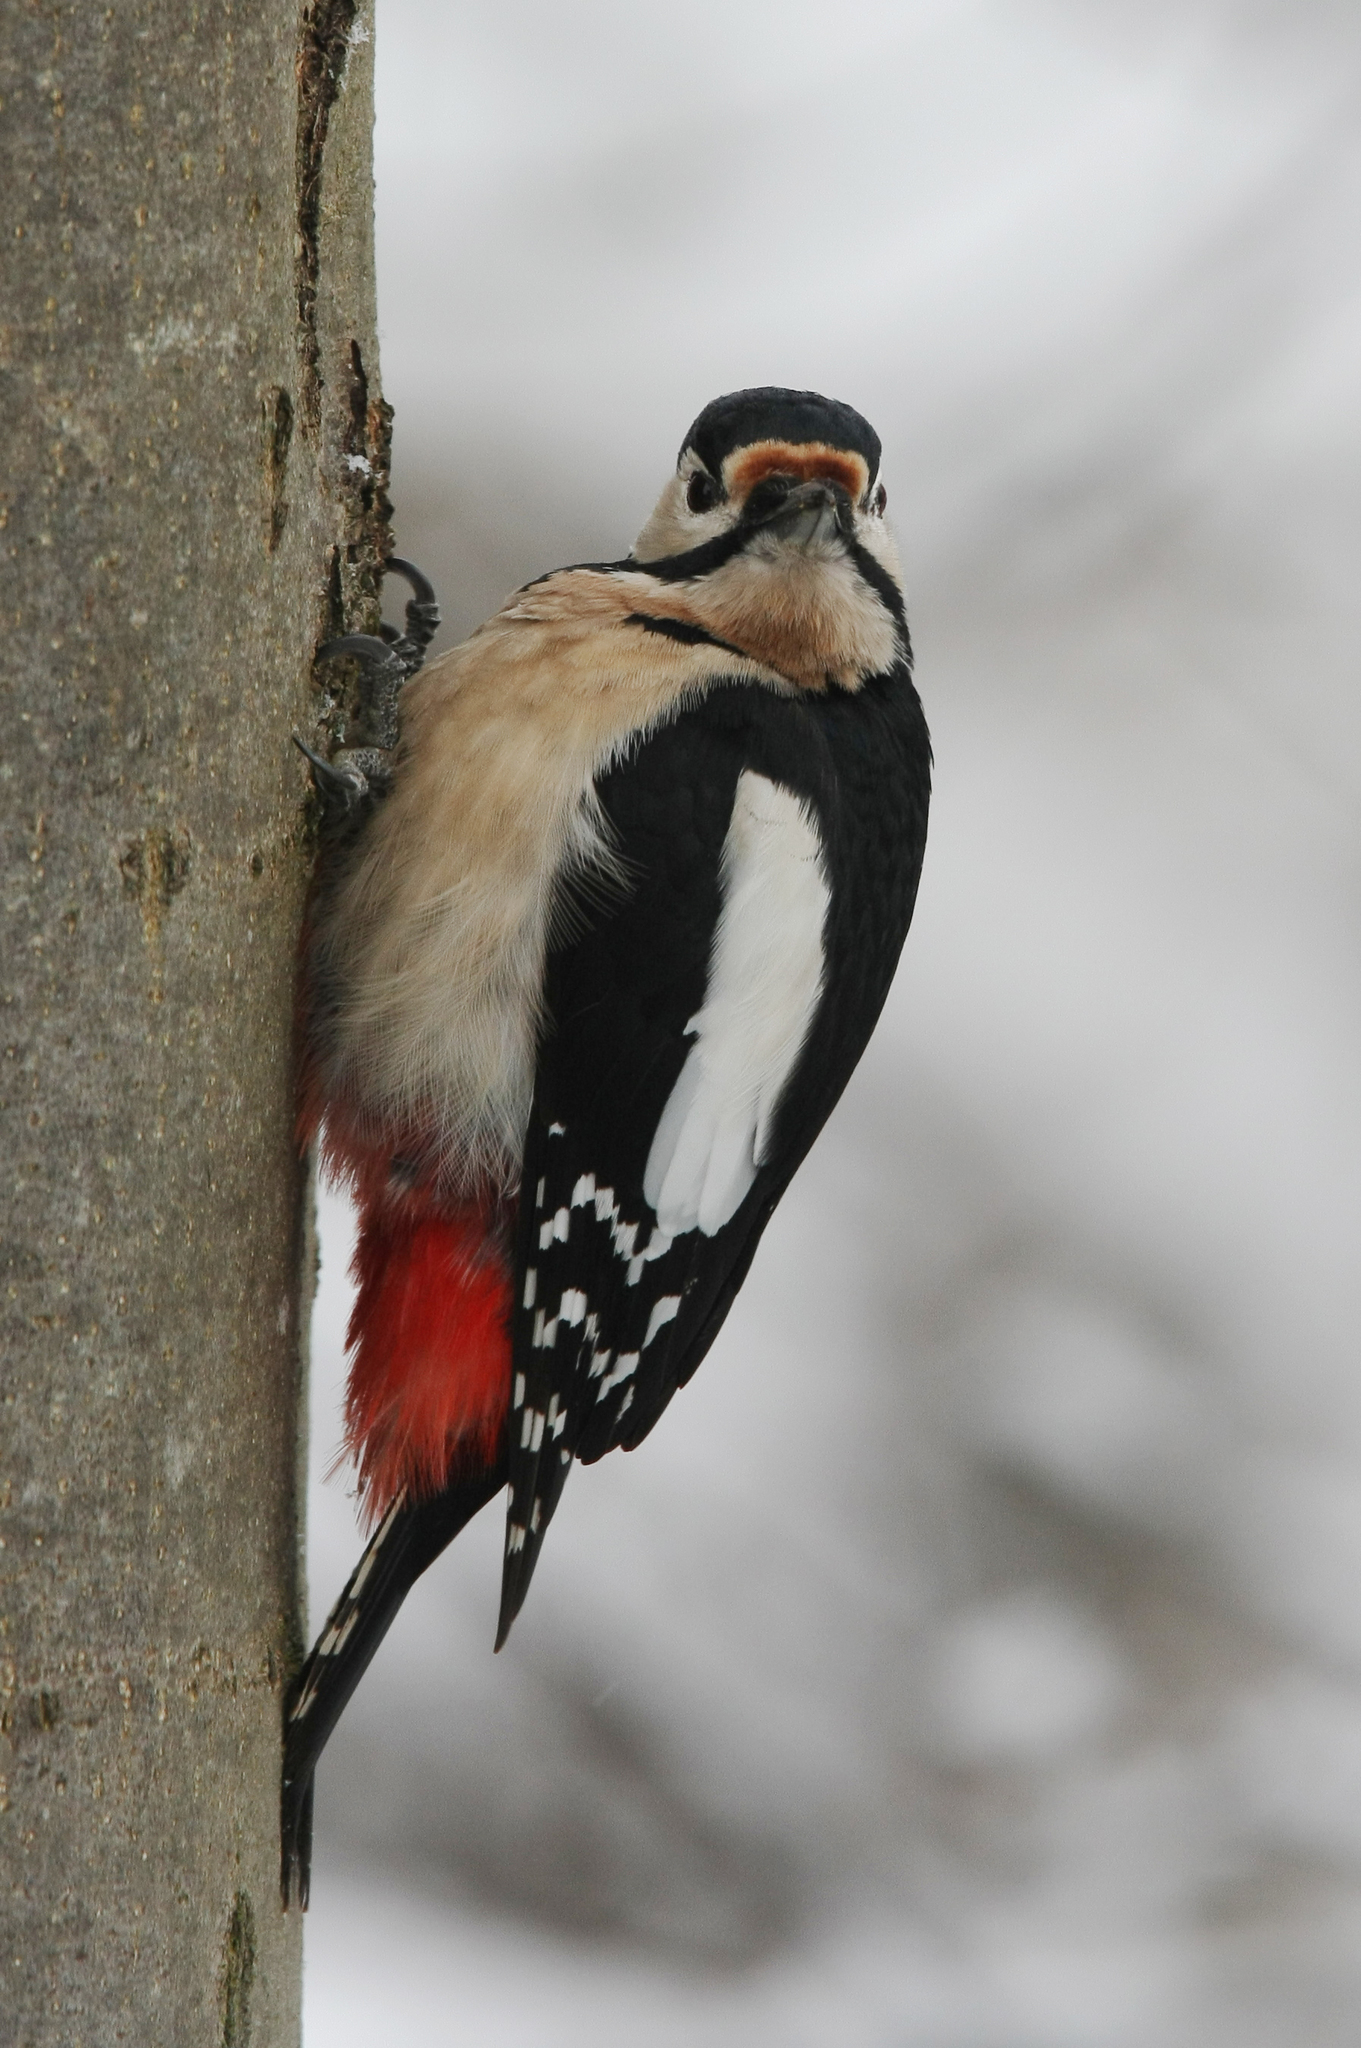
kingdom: Animalia
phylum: Chordata
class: Aves
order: Piciformes
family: Picidae
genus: Dendrocopos
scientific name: Dendrocopos major
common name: Great spotted woodpecker
